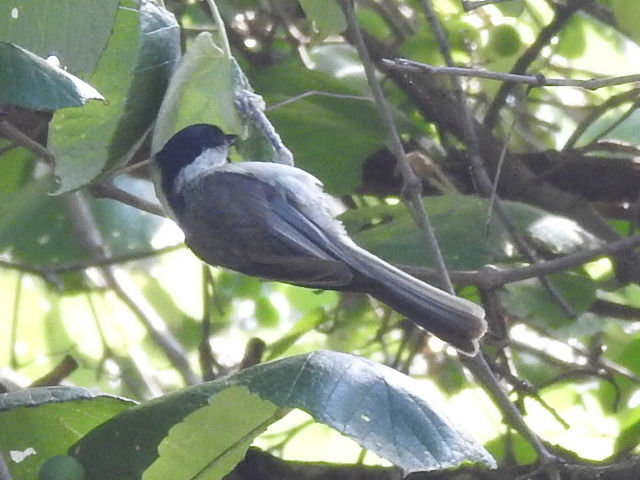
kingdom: Animalia
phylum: Chordata
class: Aves
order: Passeriformes
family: Paridae
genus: Poecile
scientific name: Poecile carolinensis
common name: Carolina chickadee
